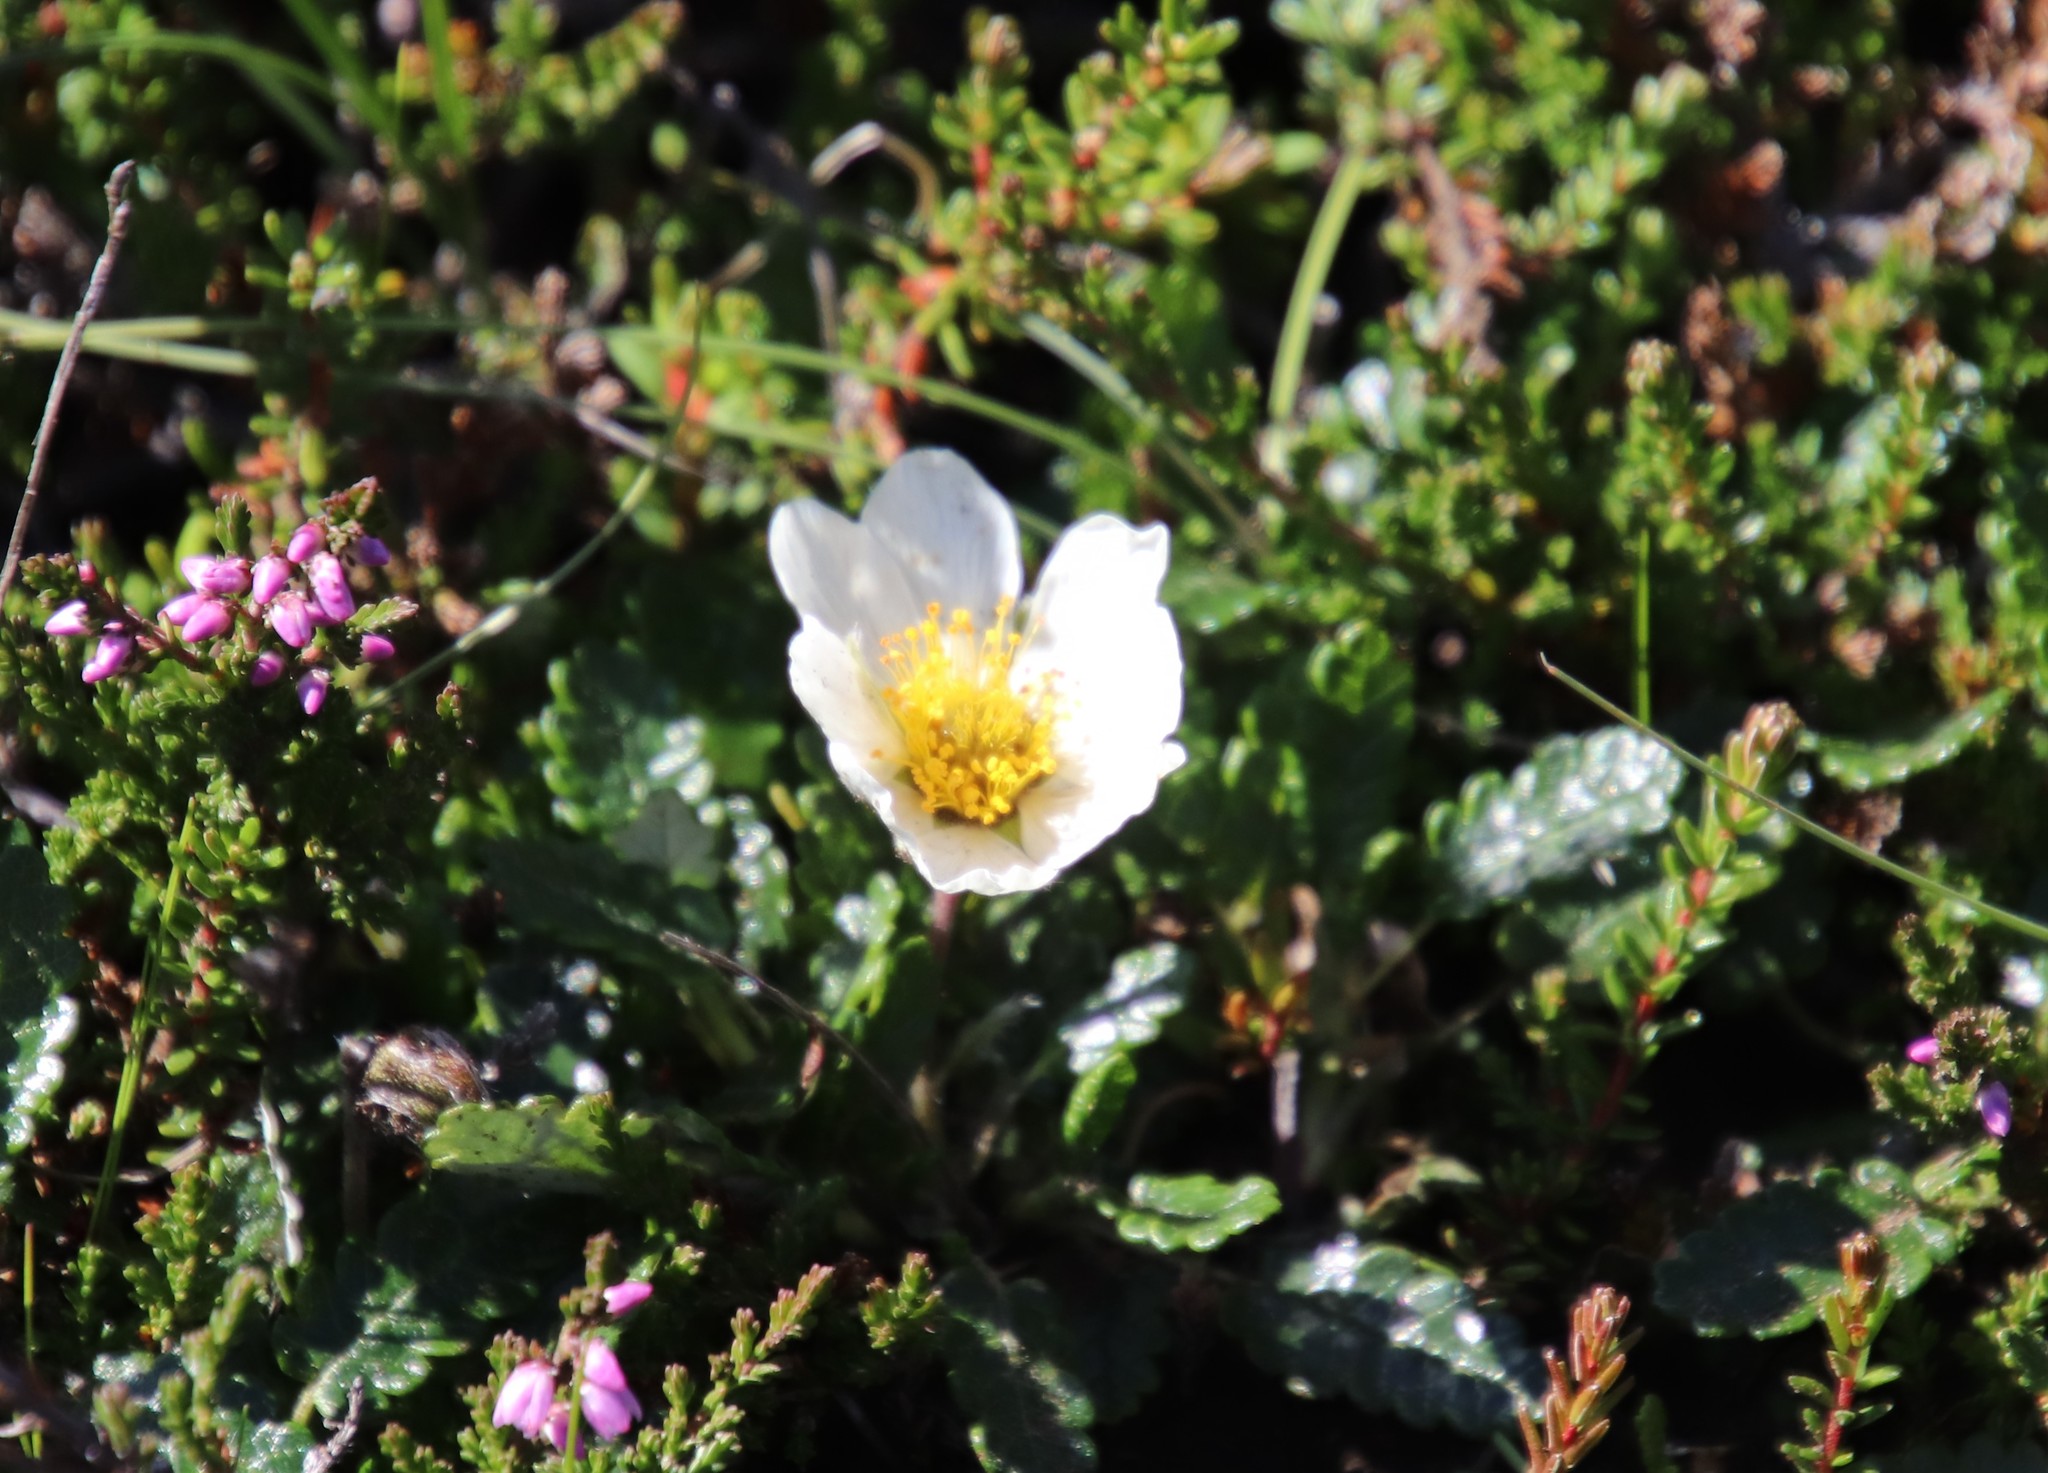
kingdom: Plantae
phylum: Tracheophyta
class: Magnoliopsida
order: Rosales
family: Rosaceae
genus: Dryas
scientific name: Dryas octopetala
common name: Eight-petal mountain-avens
